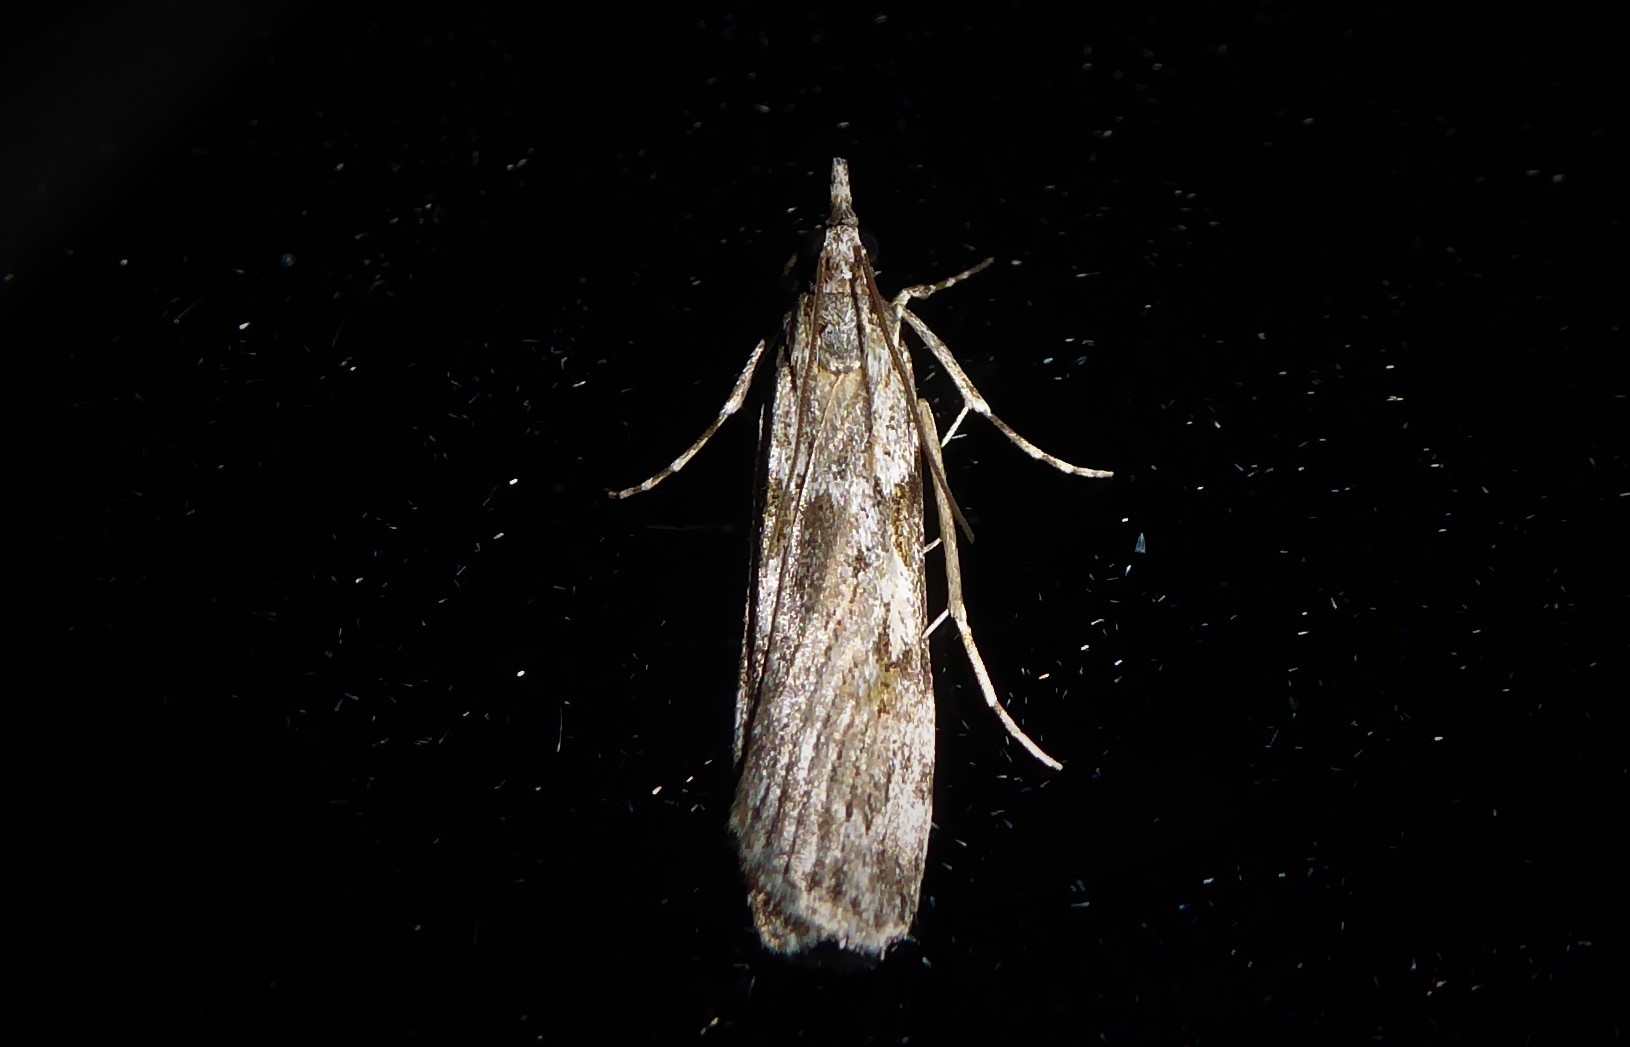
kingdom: Animalia
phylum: Arthropoda
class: Insecta
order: Lepidoptera
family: Crambidae
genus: Scoparia
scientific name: Scoparia halopis
